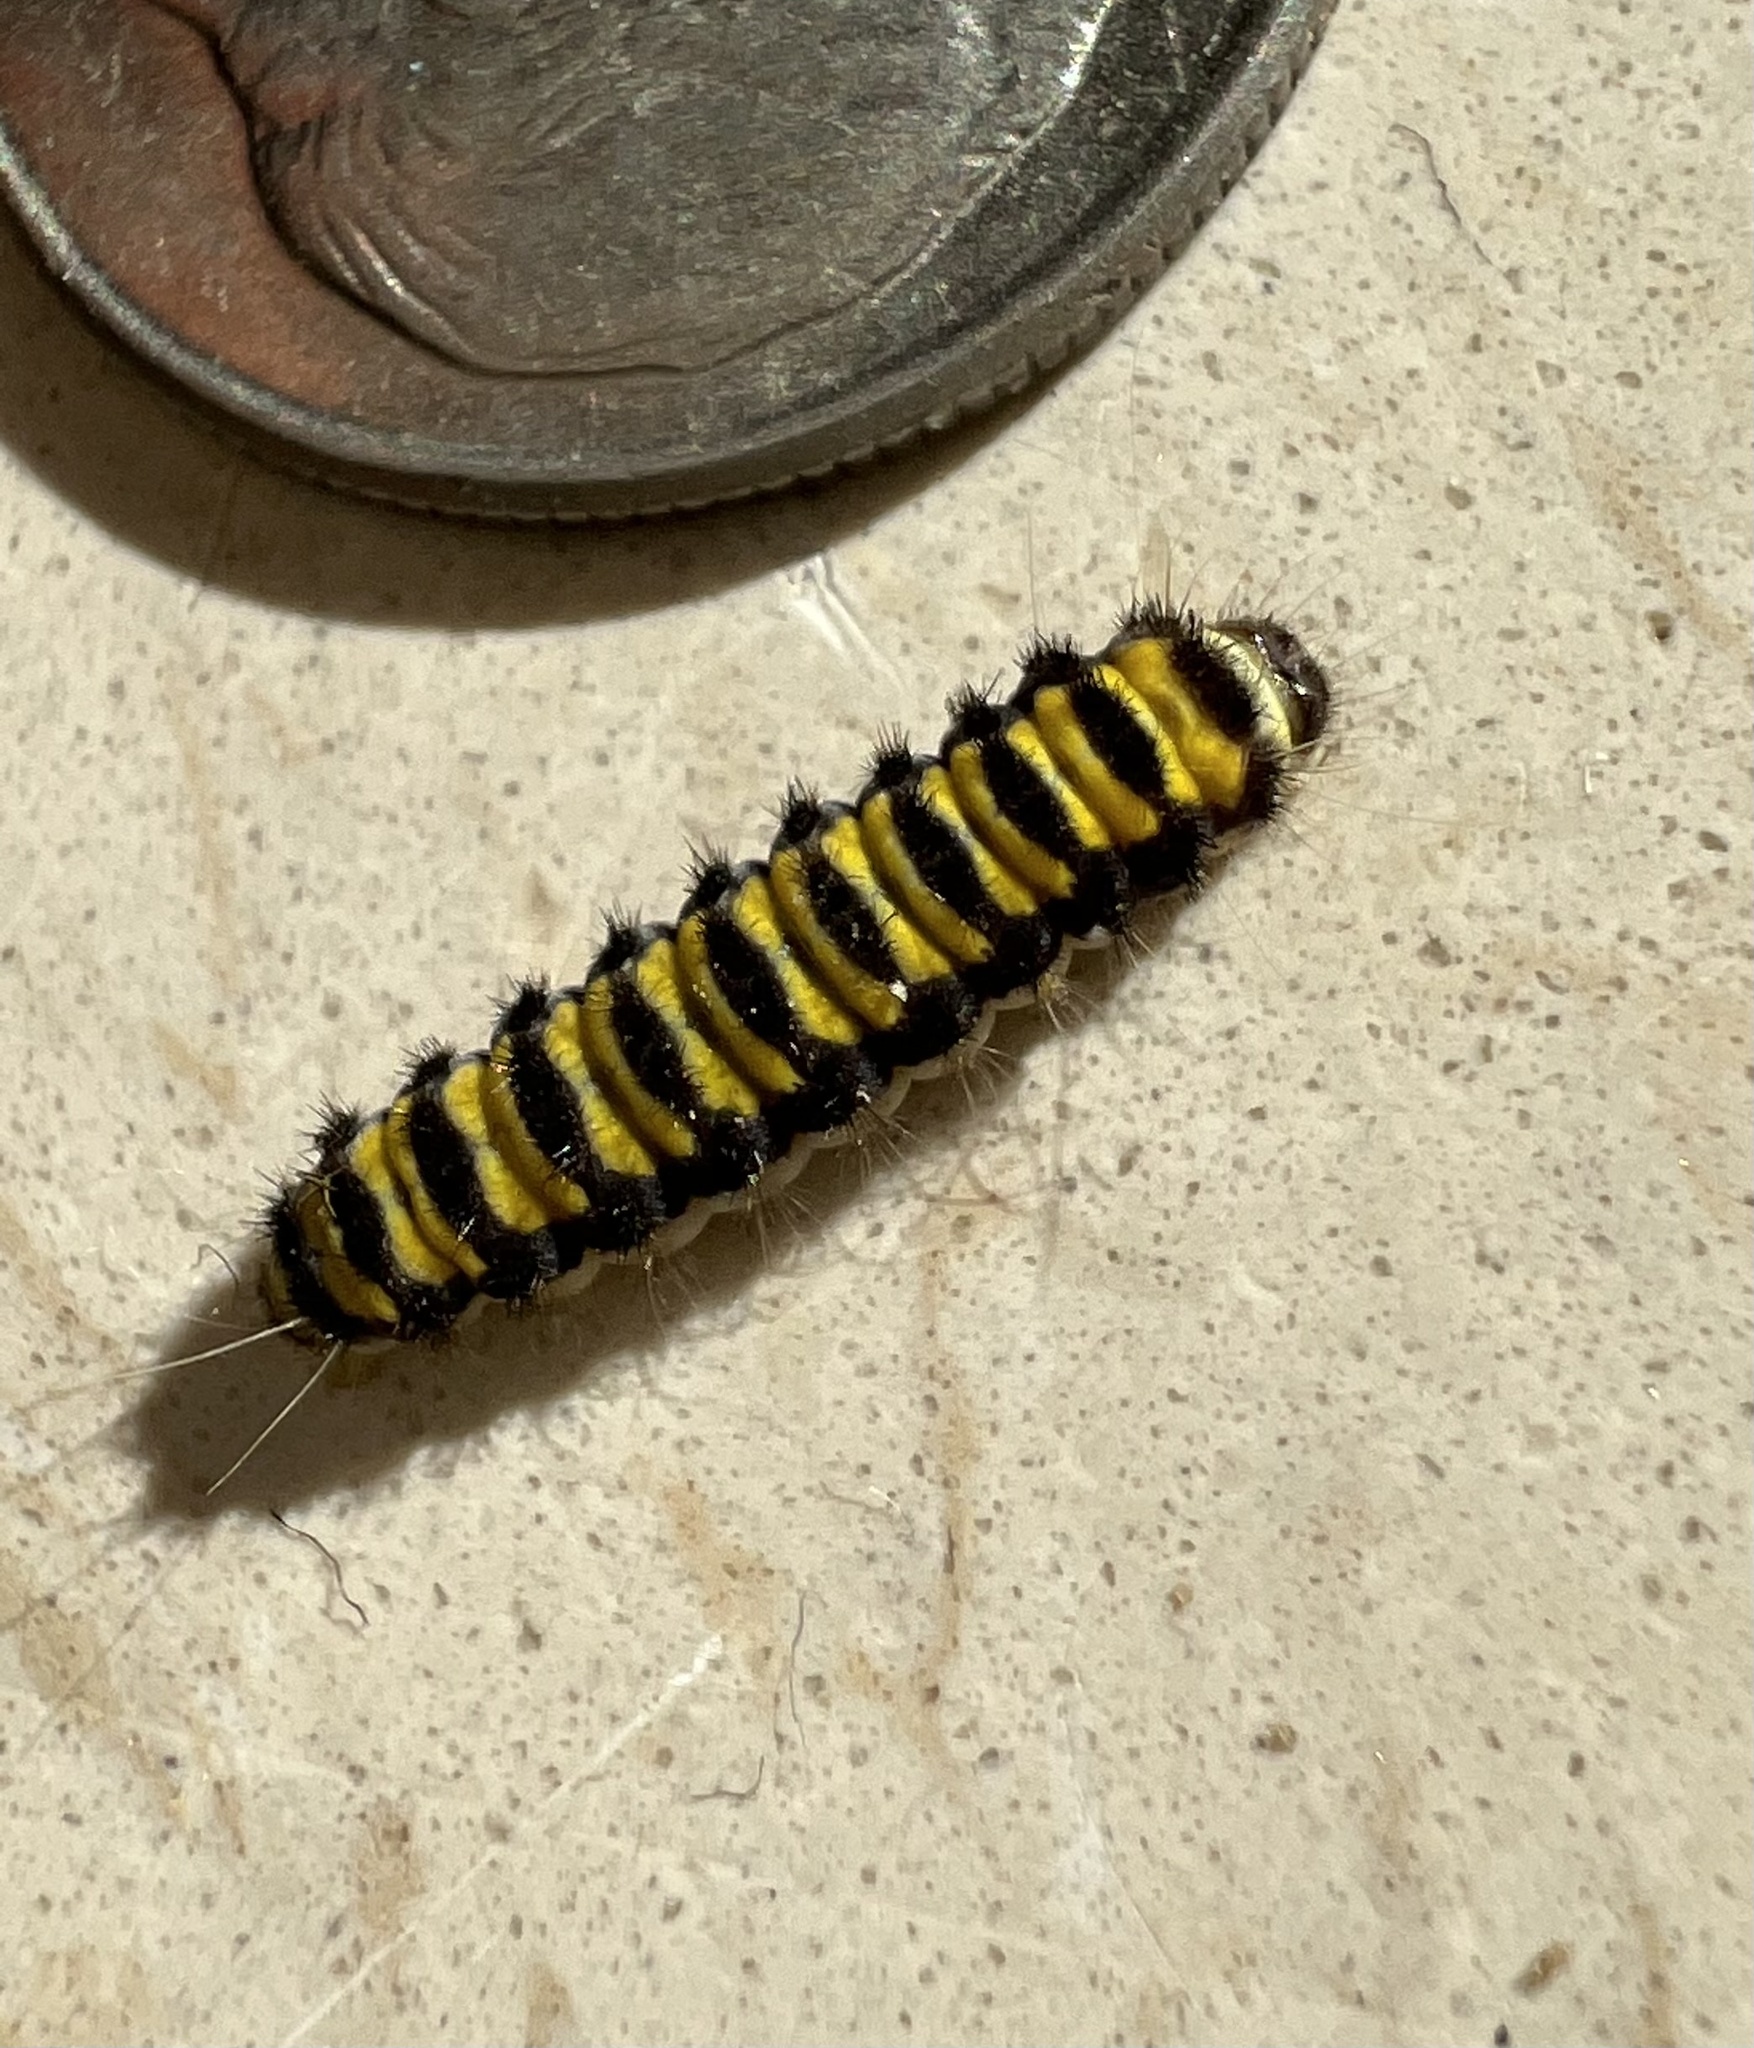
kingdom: Animalia
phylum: Arthropoda
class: Insecta
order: Lepidoptera
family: Zygaenidae
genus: Harrisina
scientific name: Harrisina americana
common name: Grapeleaf skeletonizer moth
